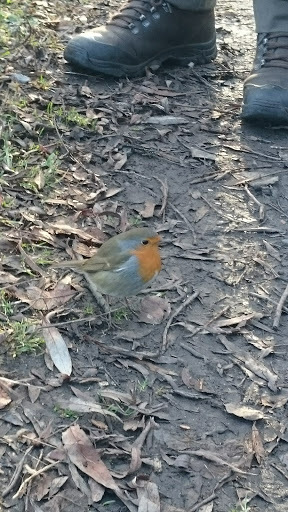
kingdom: Animalia
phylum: Chordata
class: Aves
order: Passeriformes
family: Muscicapidae
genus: Erithacus
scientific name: Erithacus rubecula
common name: European robin
